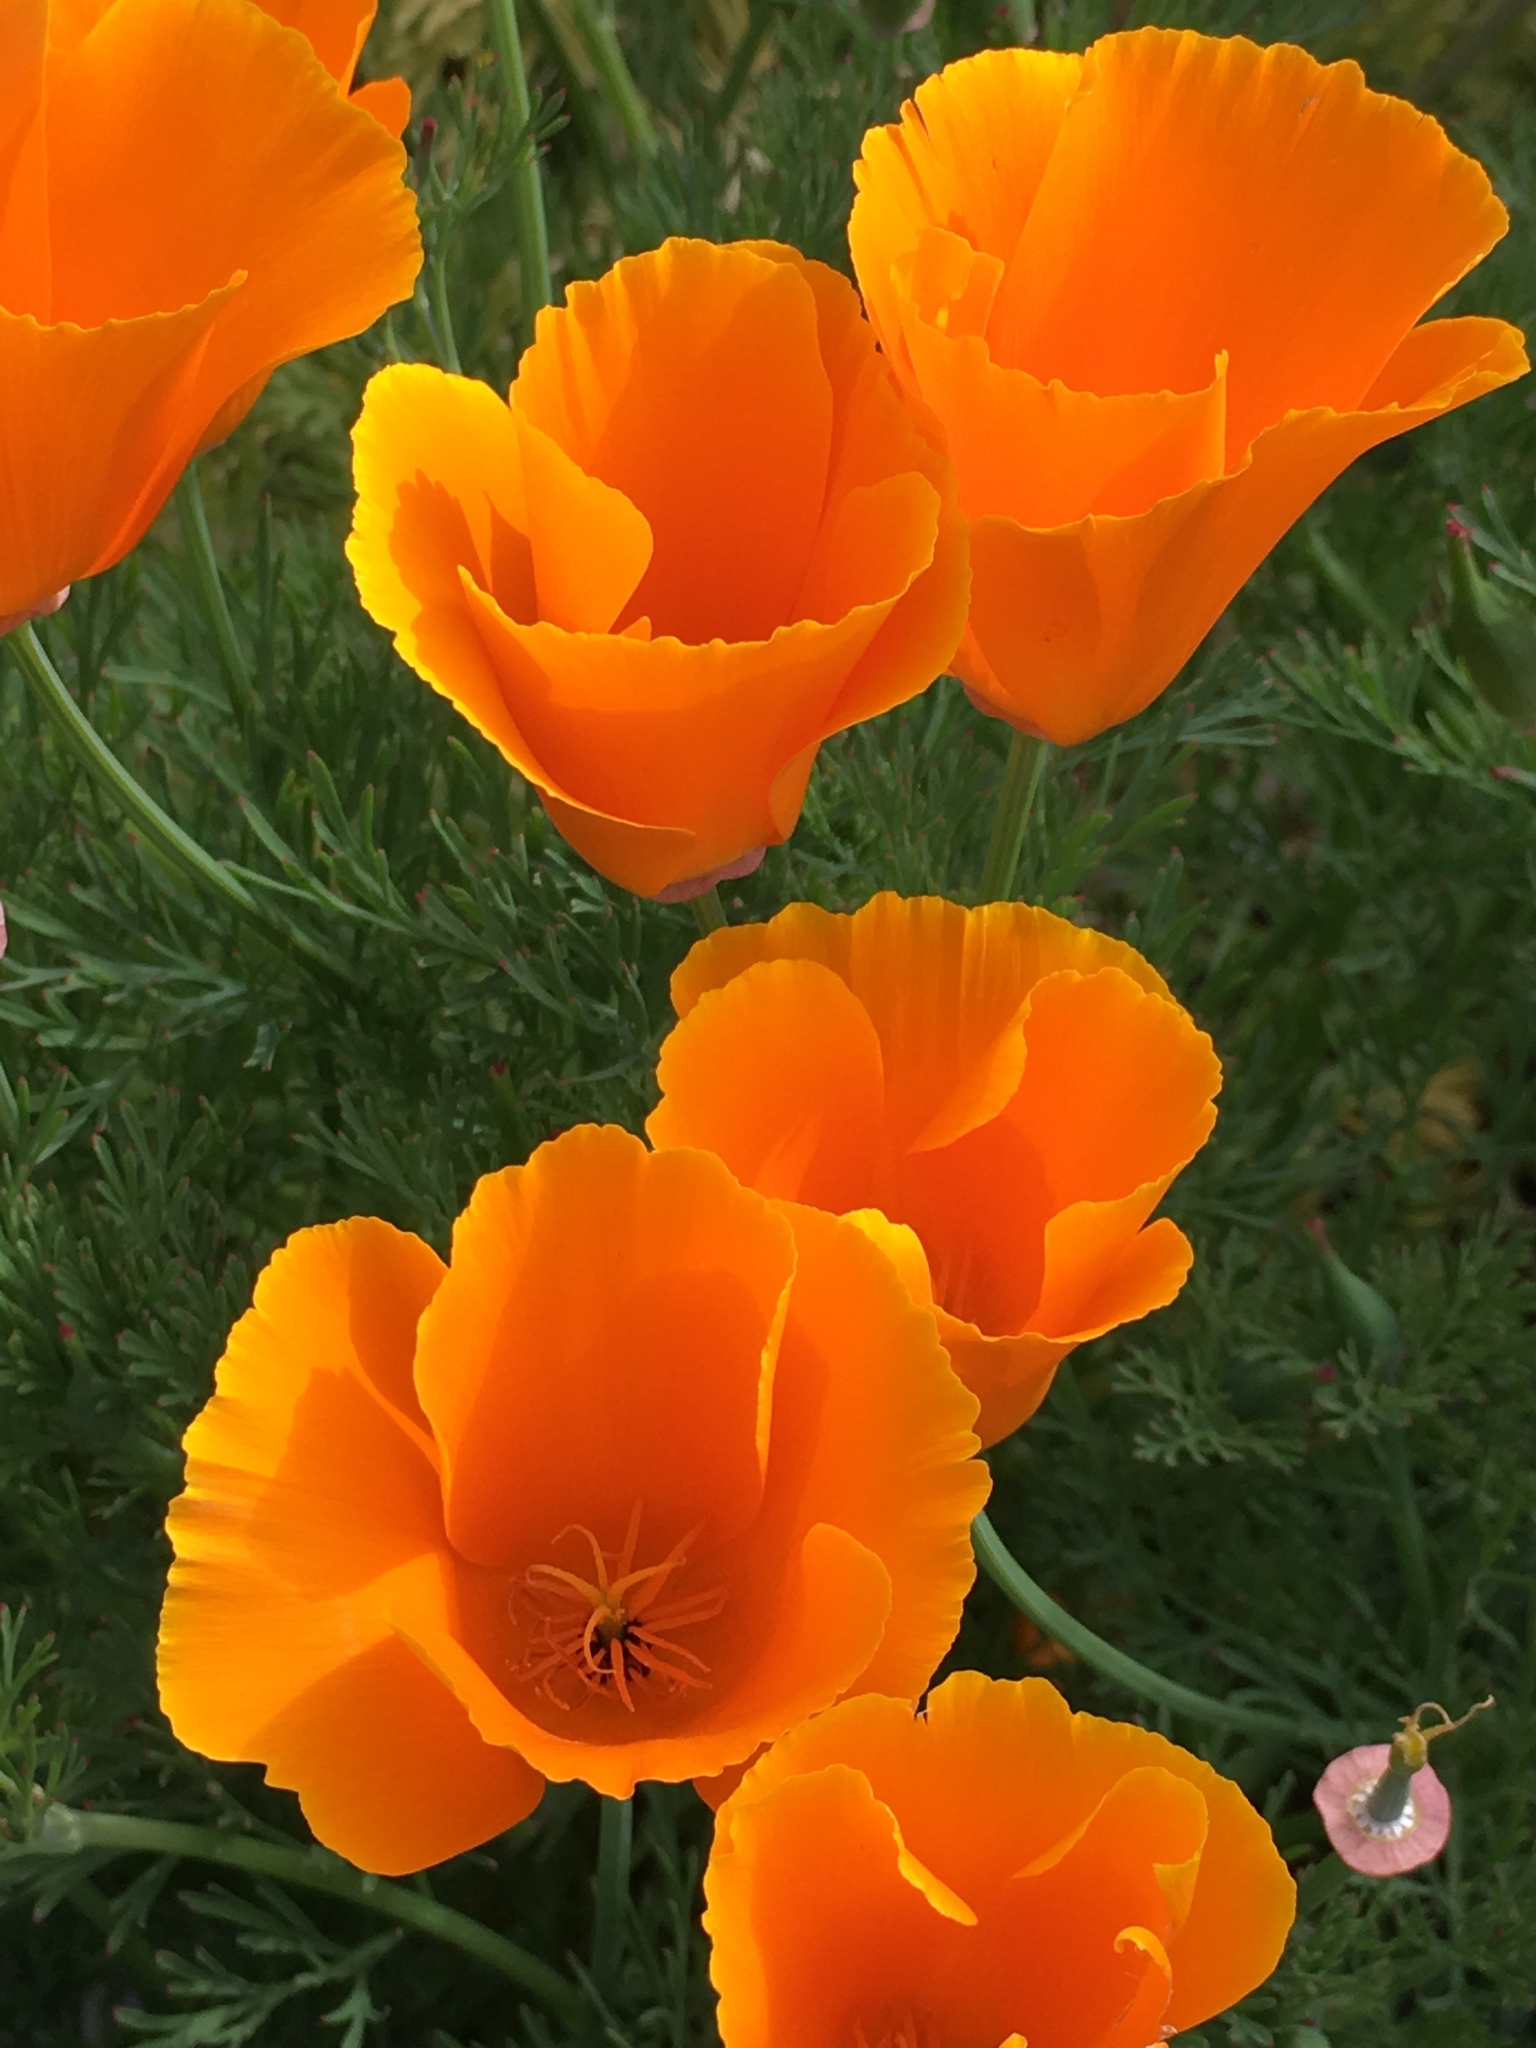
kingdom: Plantae
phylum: Tracheophyta
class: Magnoliopsida
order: Ranunculales
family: Papaveraceae
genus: Eschscholzia
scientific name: Eschscholzia californica
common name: California poppy
